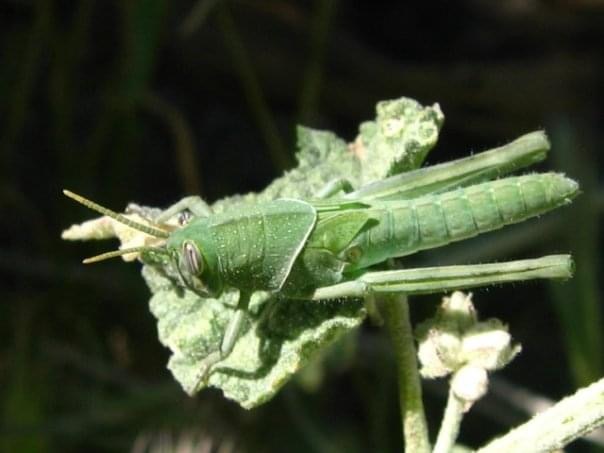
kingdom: Animalia
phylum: Arthropoda
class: Insecta
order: Orthoptera
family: Acrididae
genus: Schistocerca
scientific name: Schistocerca nitens
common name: Vagrant grasshopper
